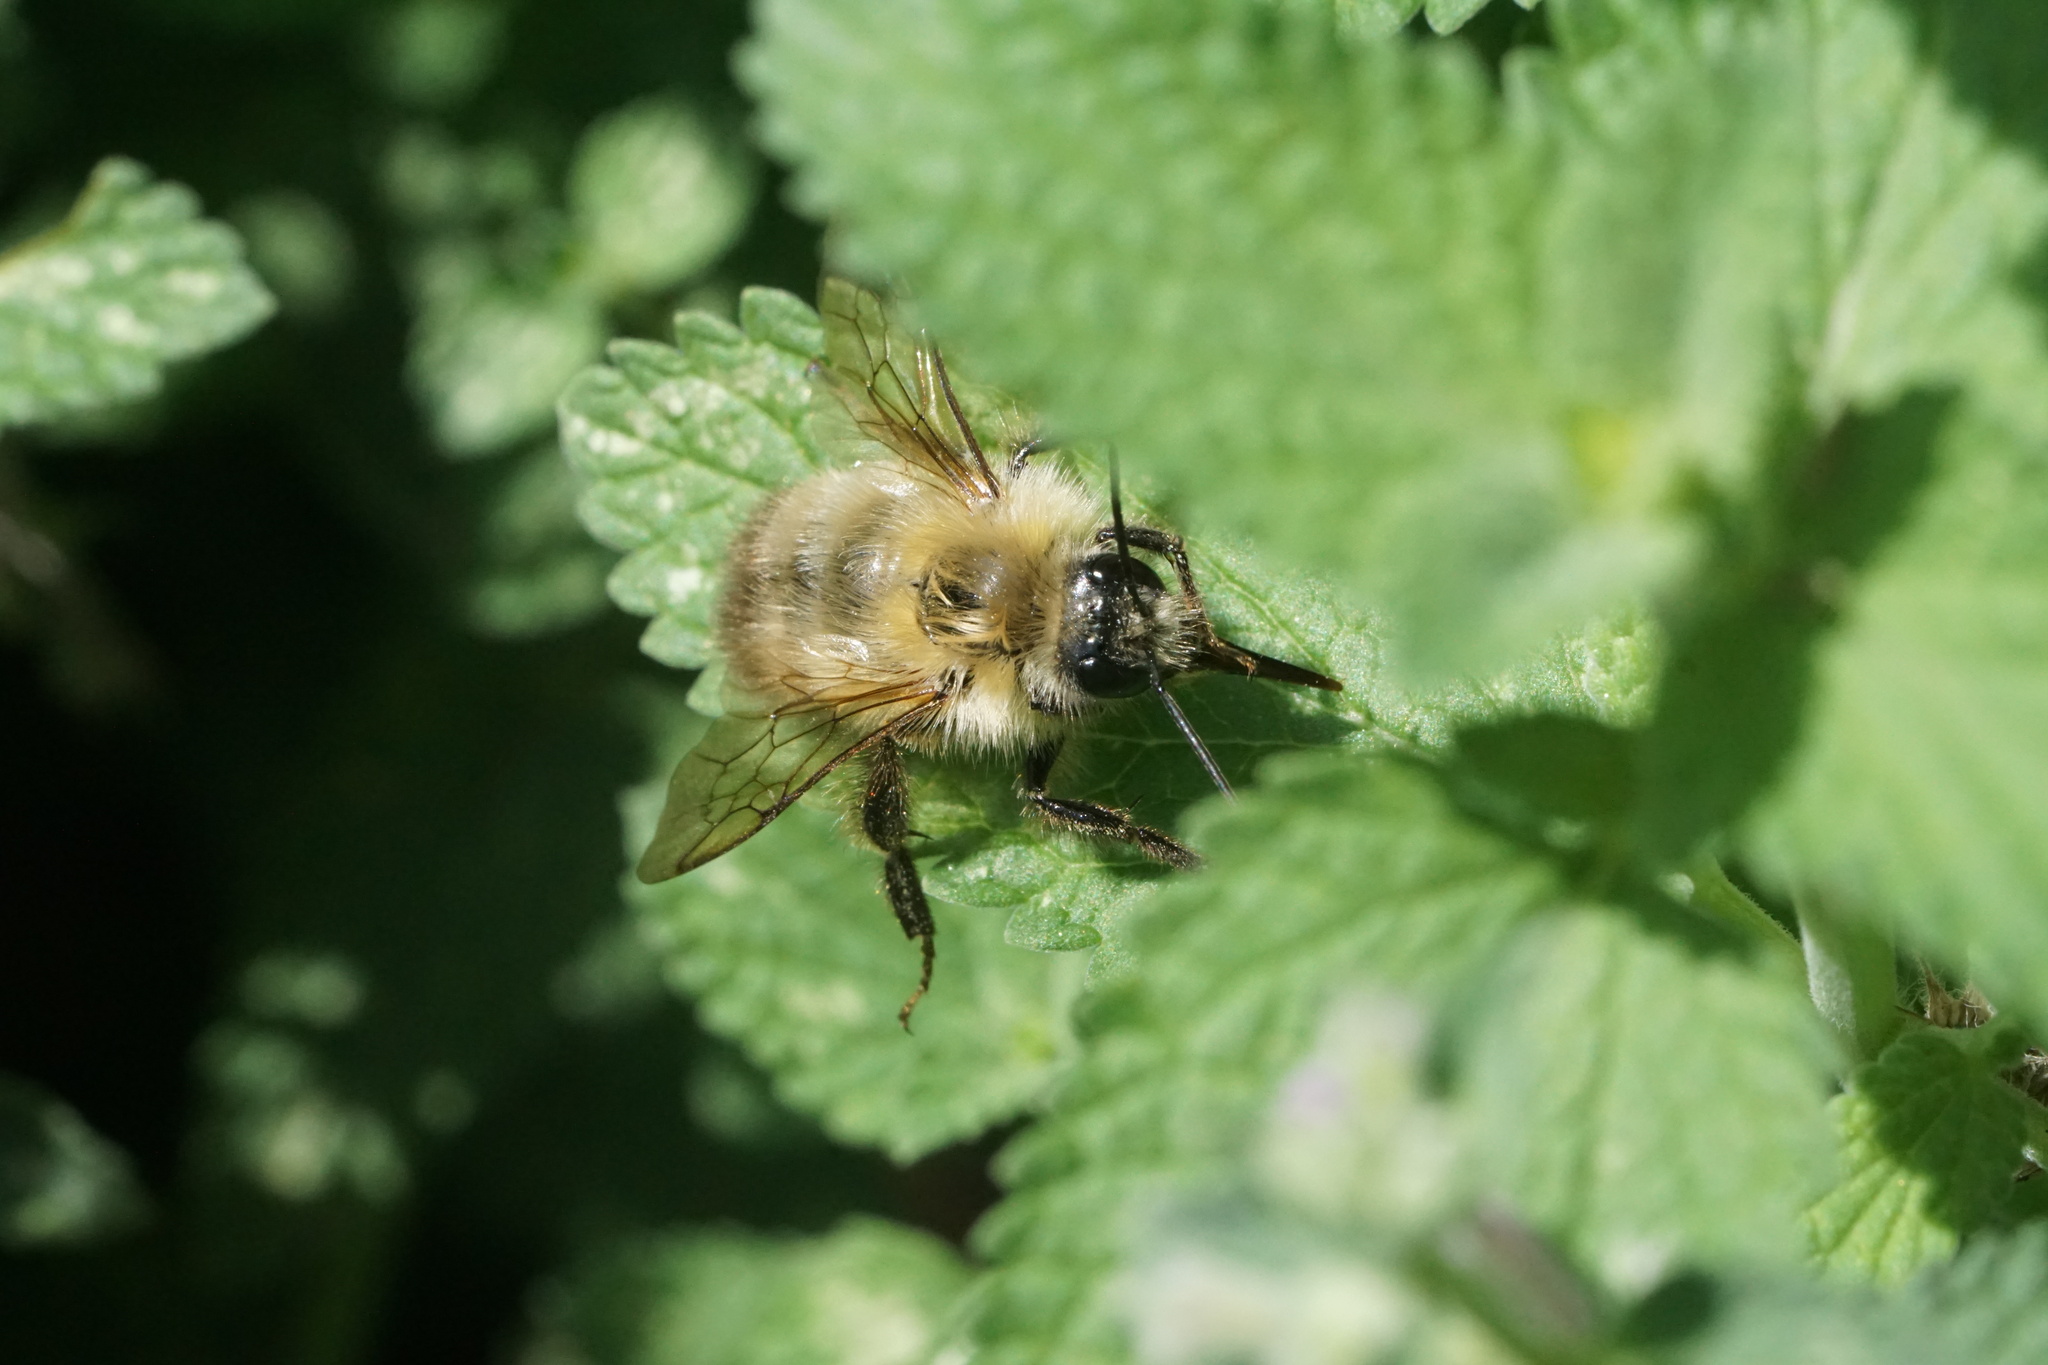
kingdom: Animalia
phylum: Arthropoda
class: Insecta
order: Hymenoptera
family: Apidae
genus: Bombus
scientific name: Bombus perplexus
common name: Confusing bumble bee
